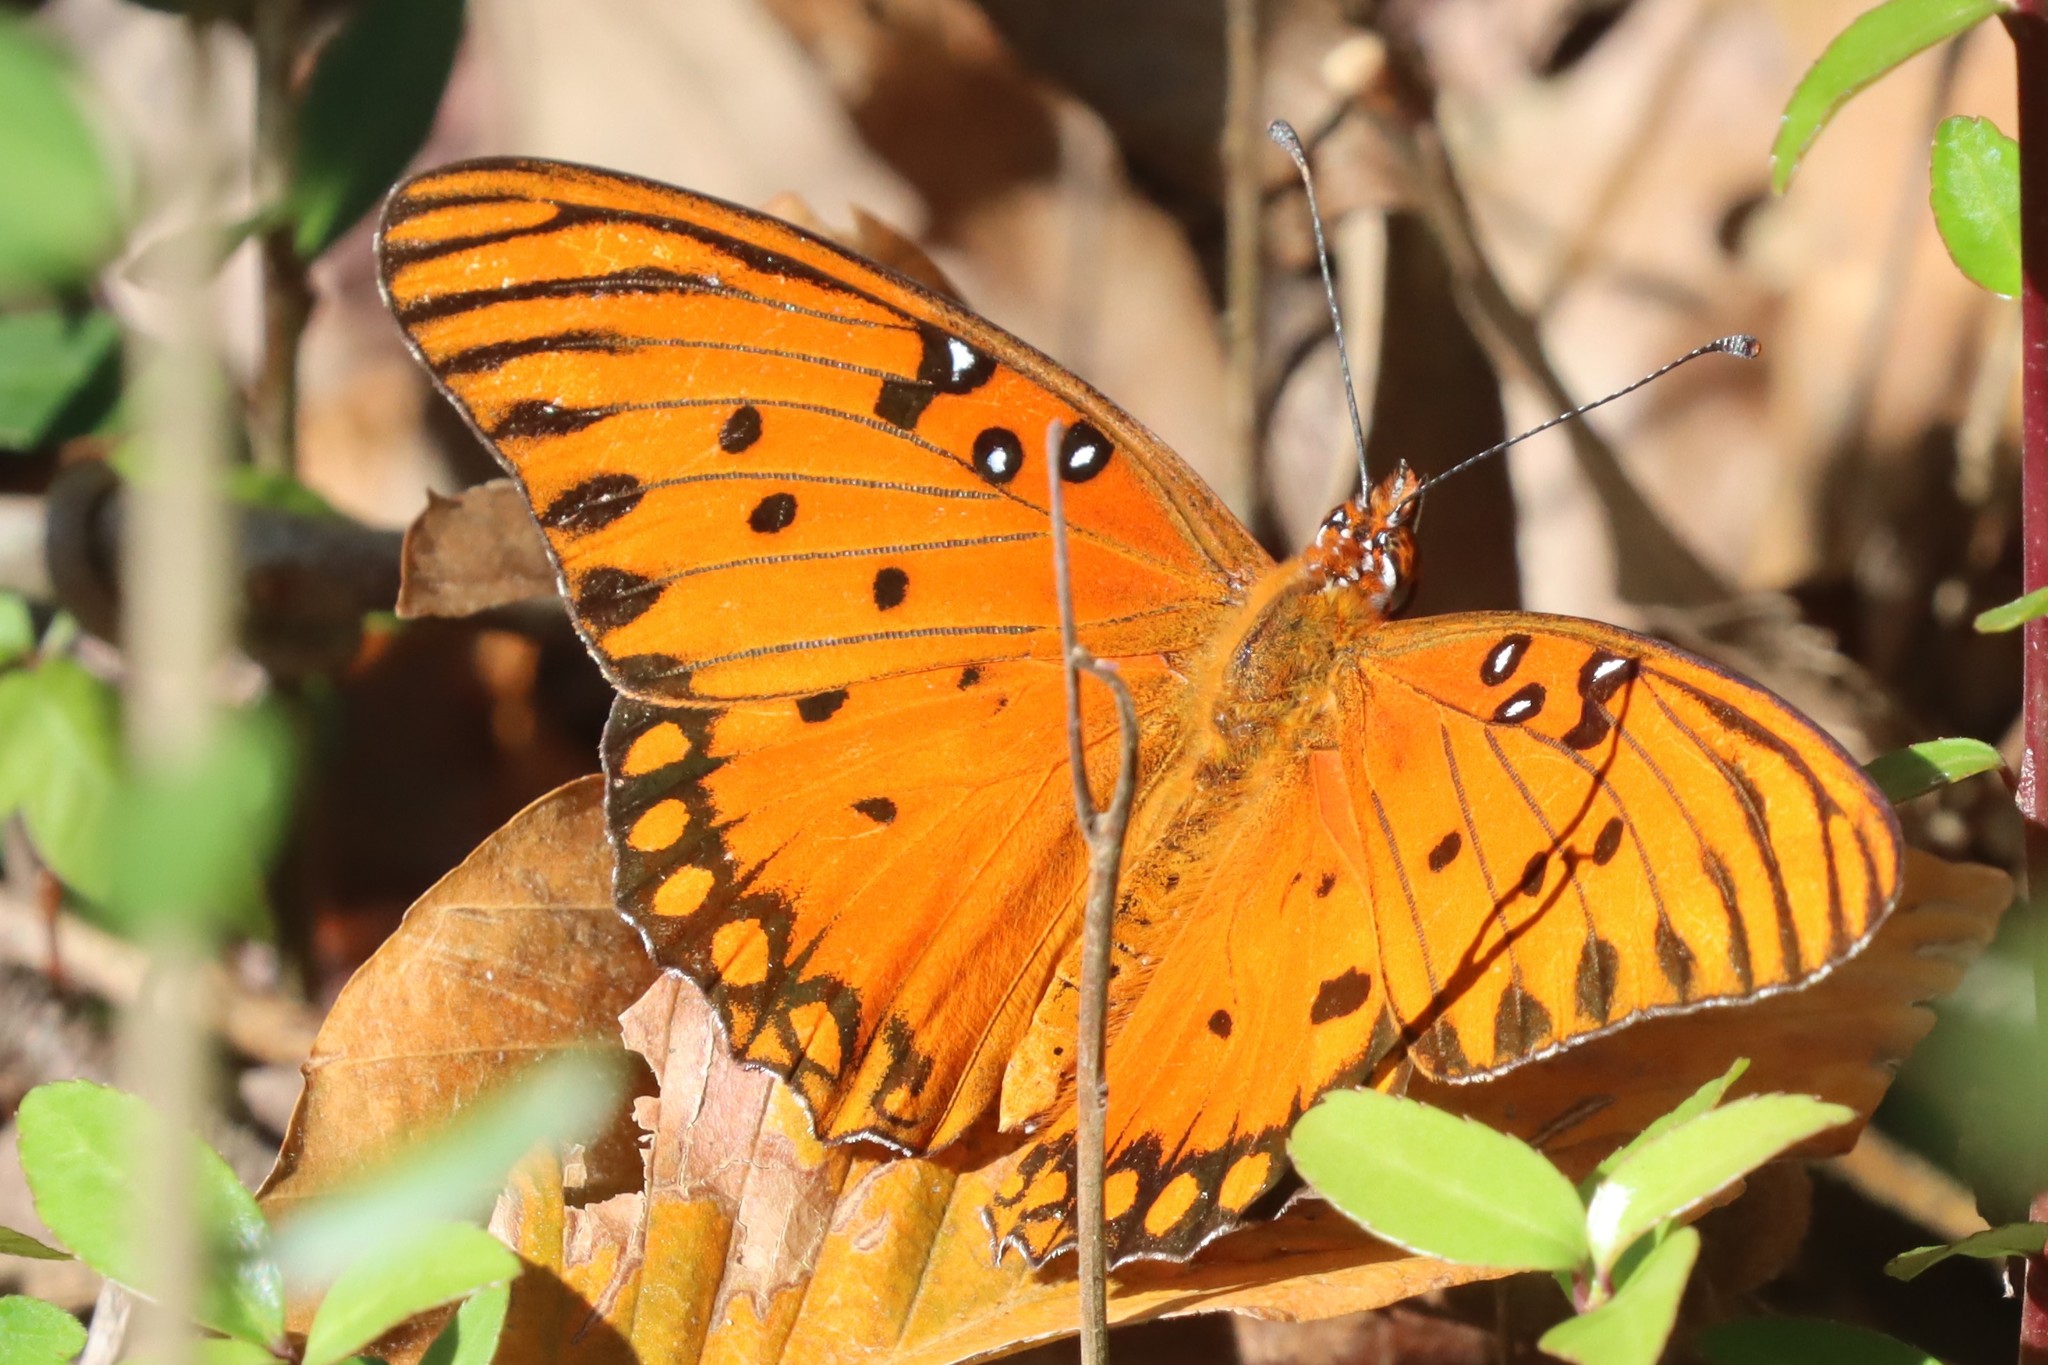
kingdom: Animalia
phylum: Arthropoda
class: Insecta
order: Lepidoptera
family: Nymphalidae
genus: Dione
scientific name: Dione vanillae
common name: Gulf fritillary
